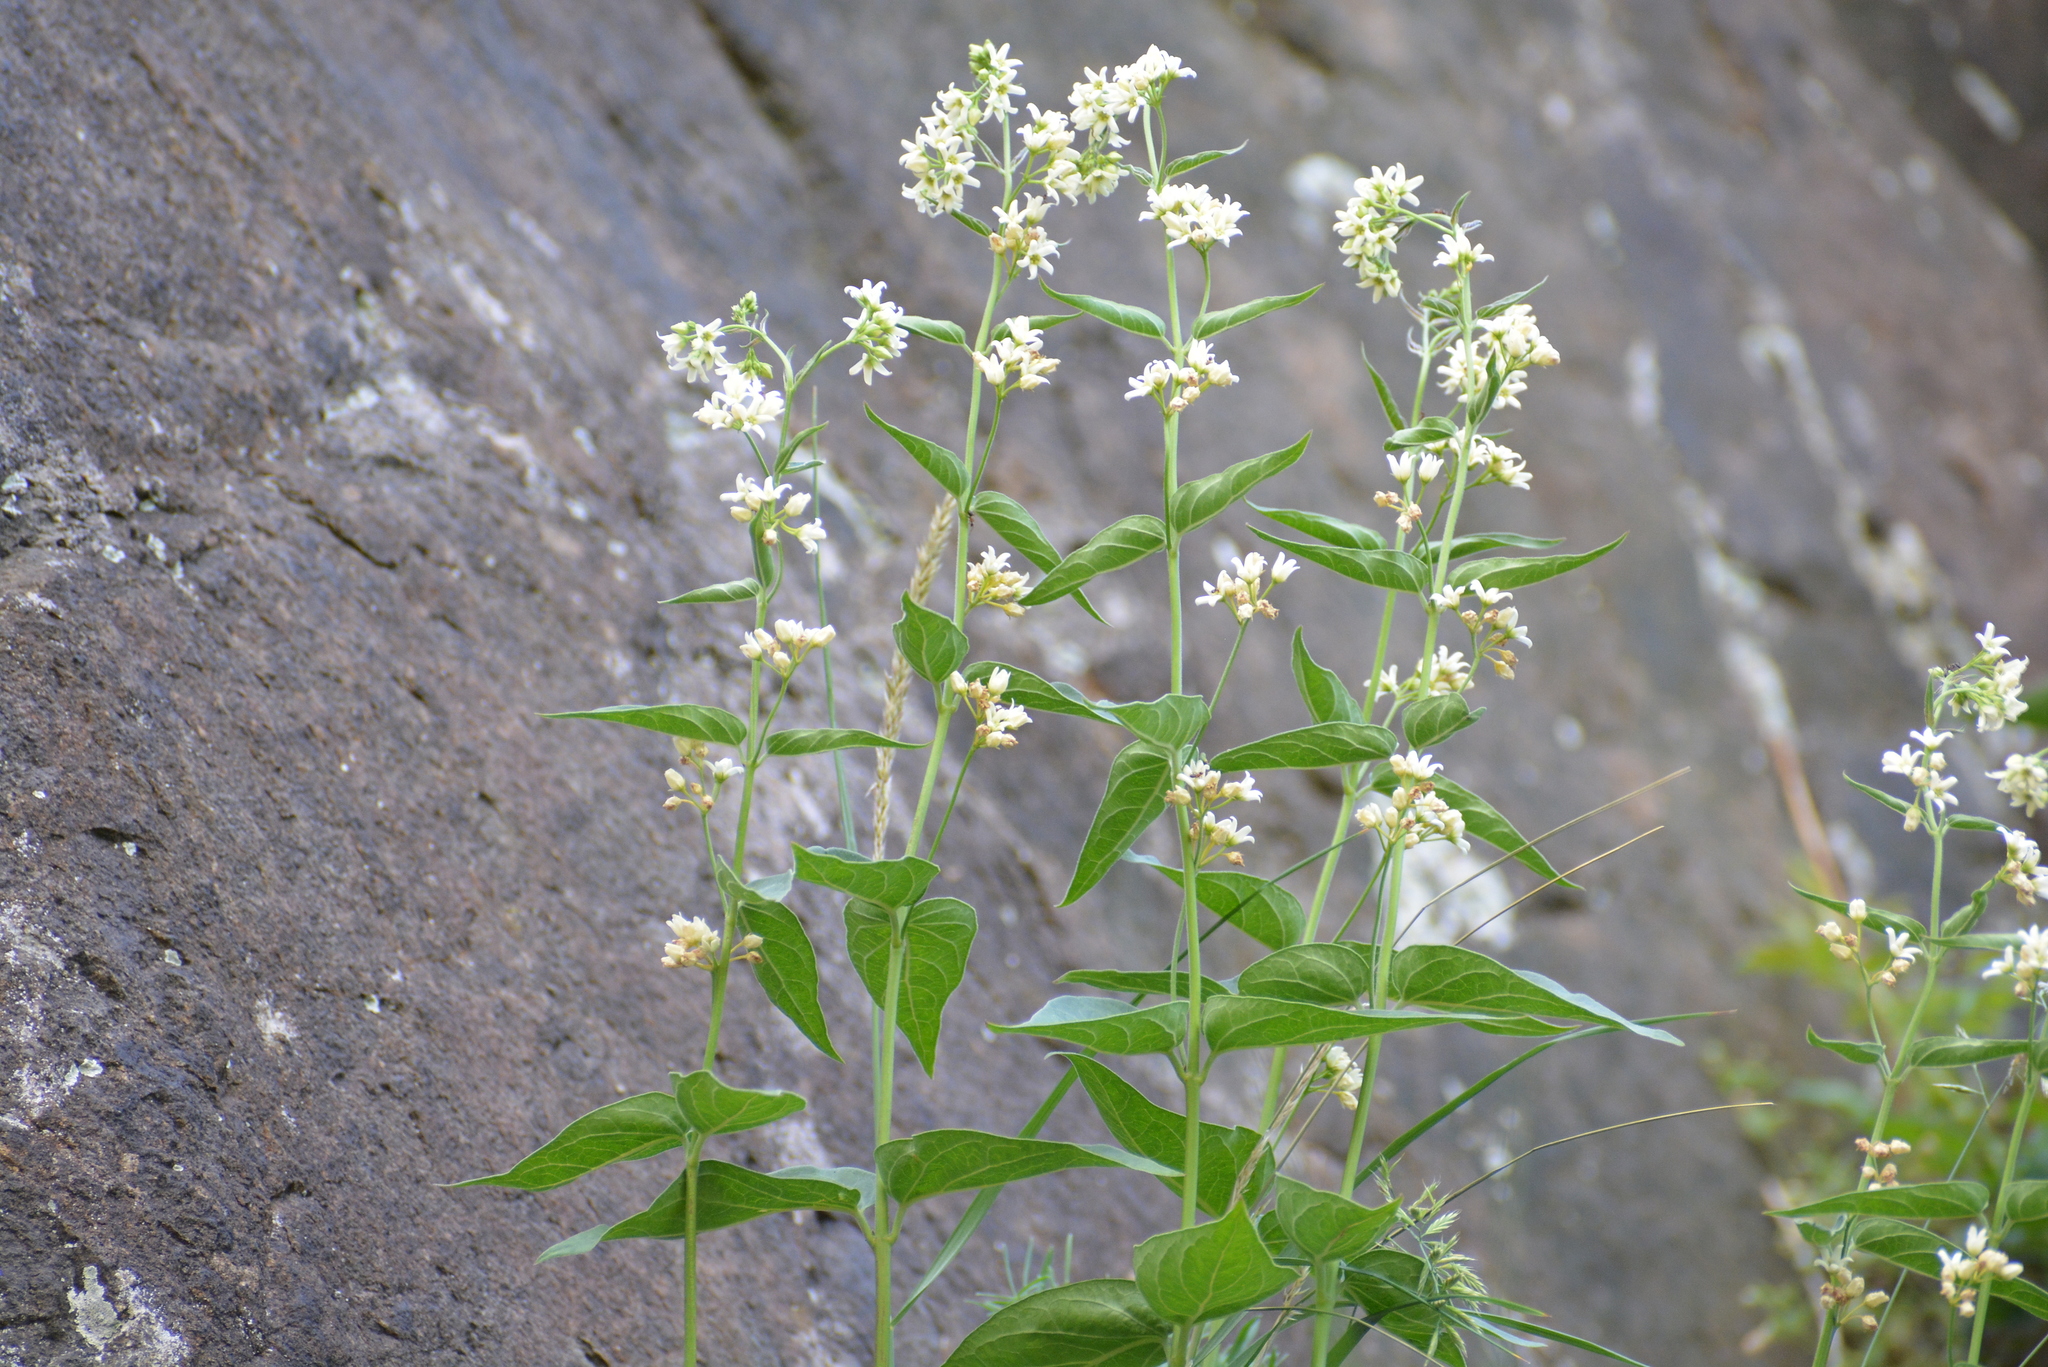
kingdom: Plantae
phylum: Tracheophyta
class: Magnoliopsida
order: Gentianales
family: Apocynaceae
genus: Vincetoxicum
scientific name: Vincetoxicum hirundinaria
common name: White swallowwort
